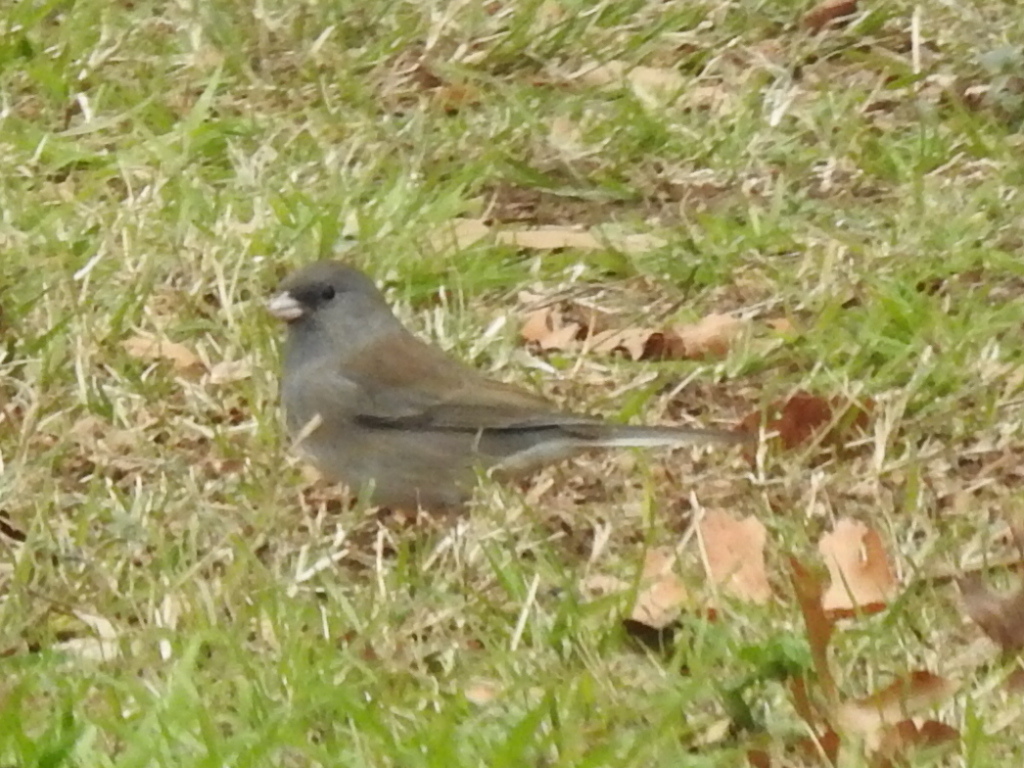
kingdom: Animalia
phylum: Chordata
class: Aves
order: Passeriformes
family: Passerellidae
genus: Junco
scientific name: Junco hyemalis
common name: Dark-eyed junco
